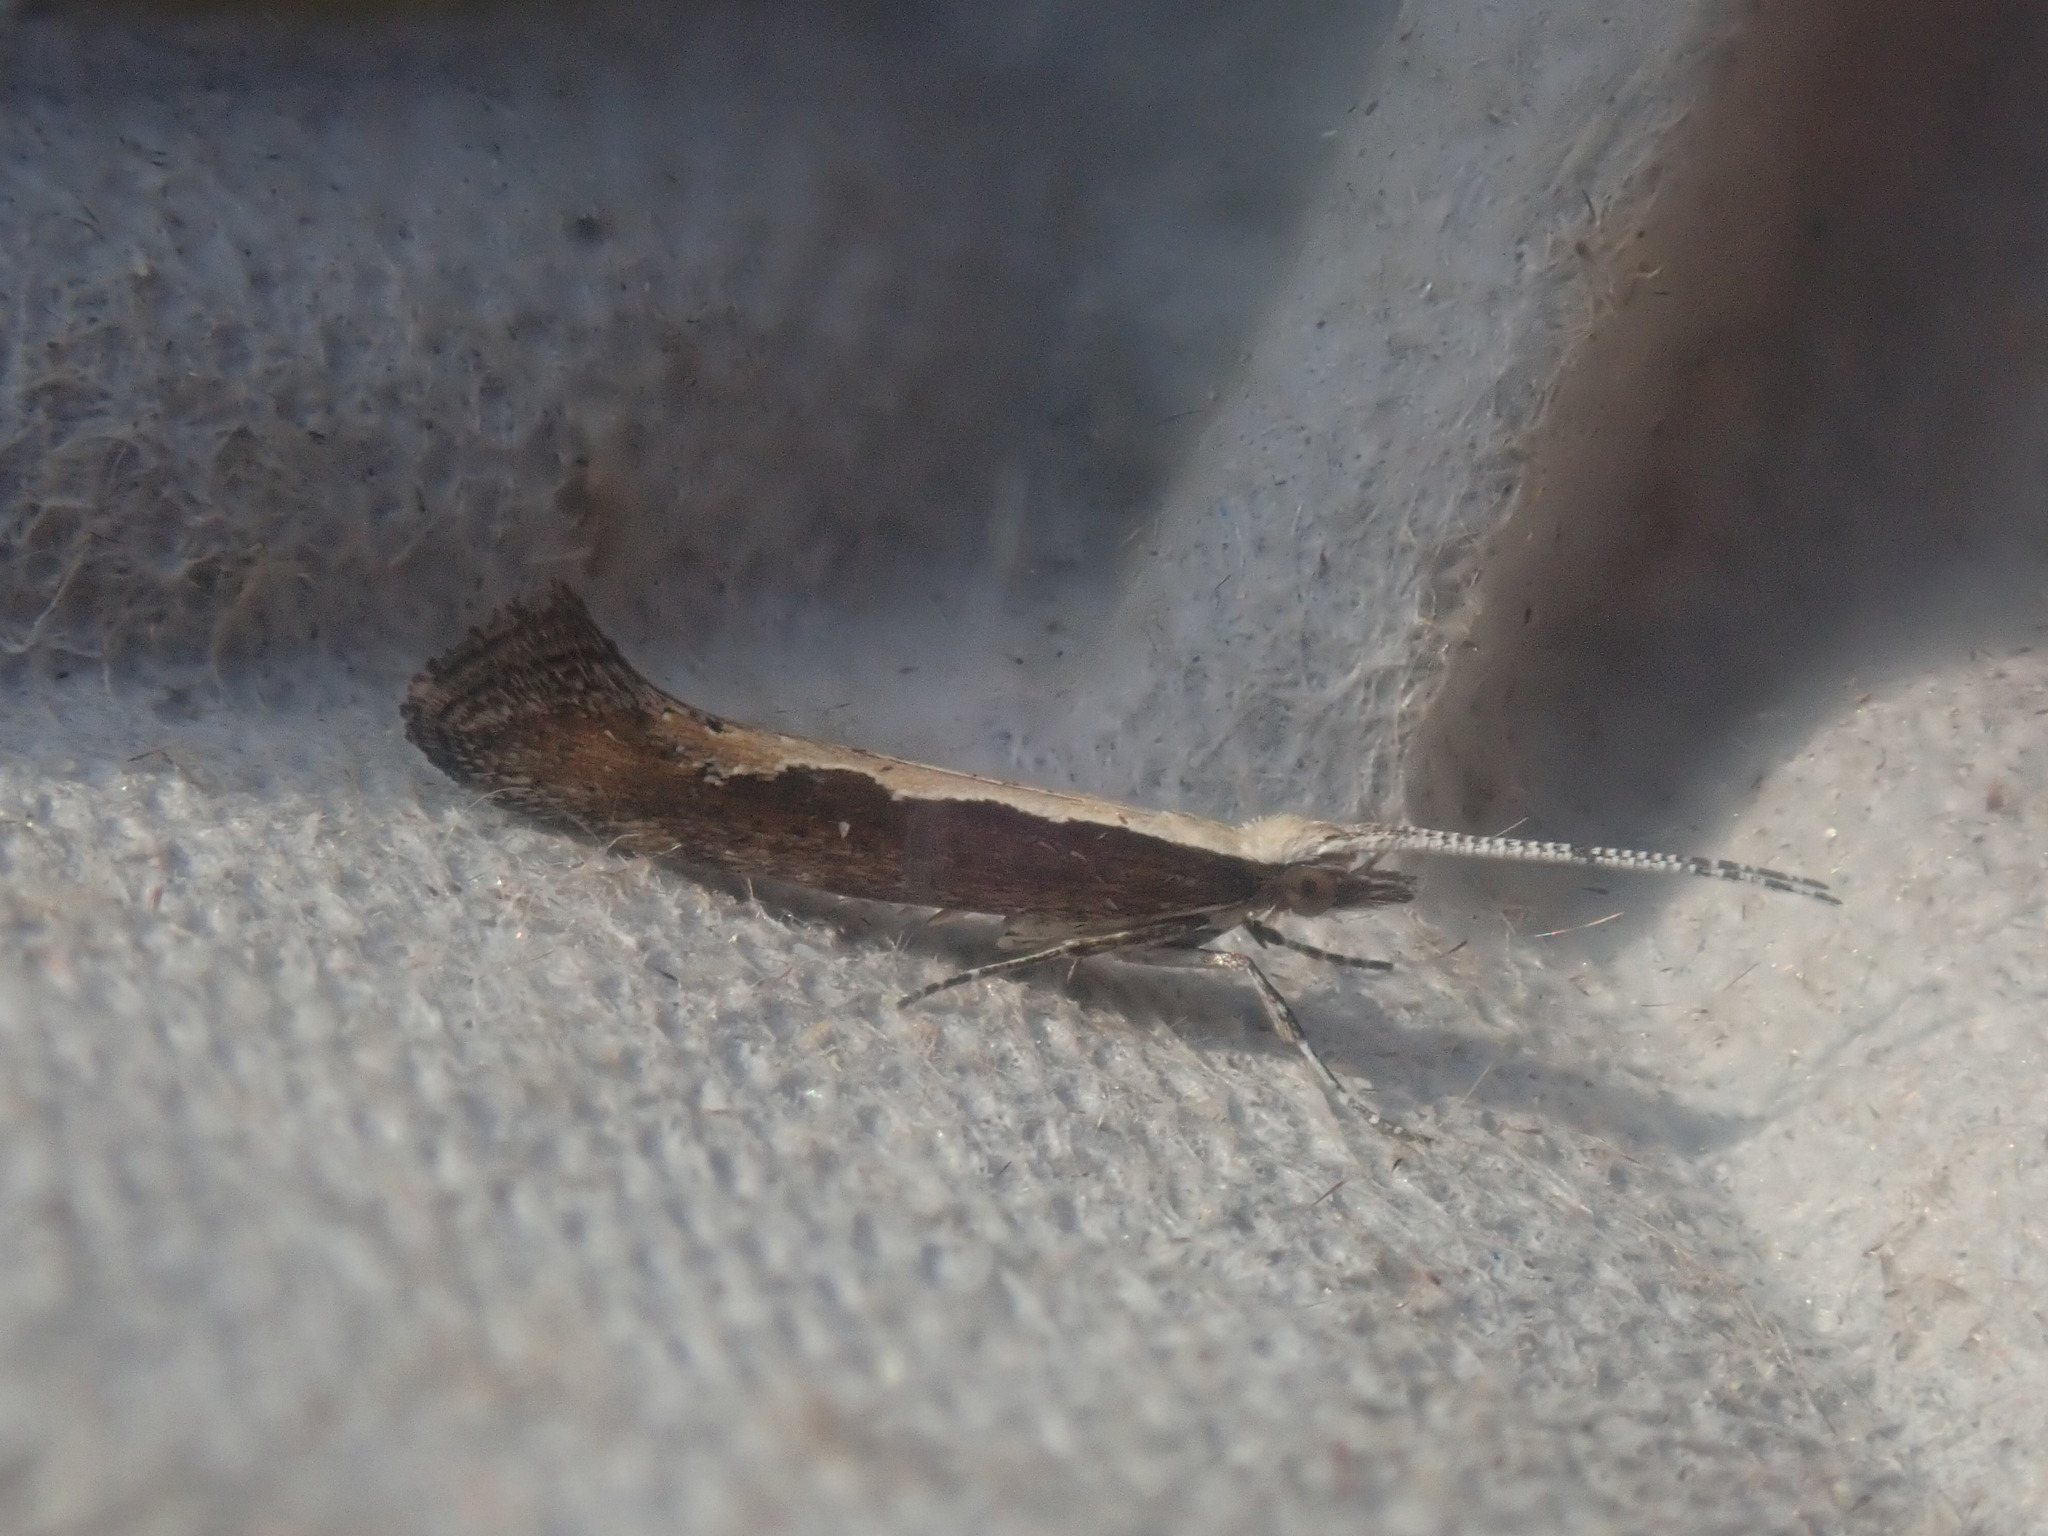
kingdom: Animalia
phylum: Arthropoda
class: Insecta
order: Lepidoptera
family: Plutellidae
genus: Plutella
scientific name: Plutella xylostella
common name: Diamond-back moth
